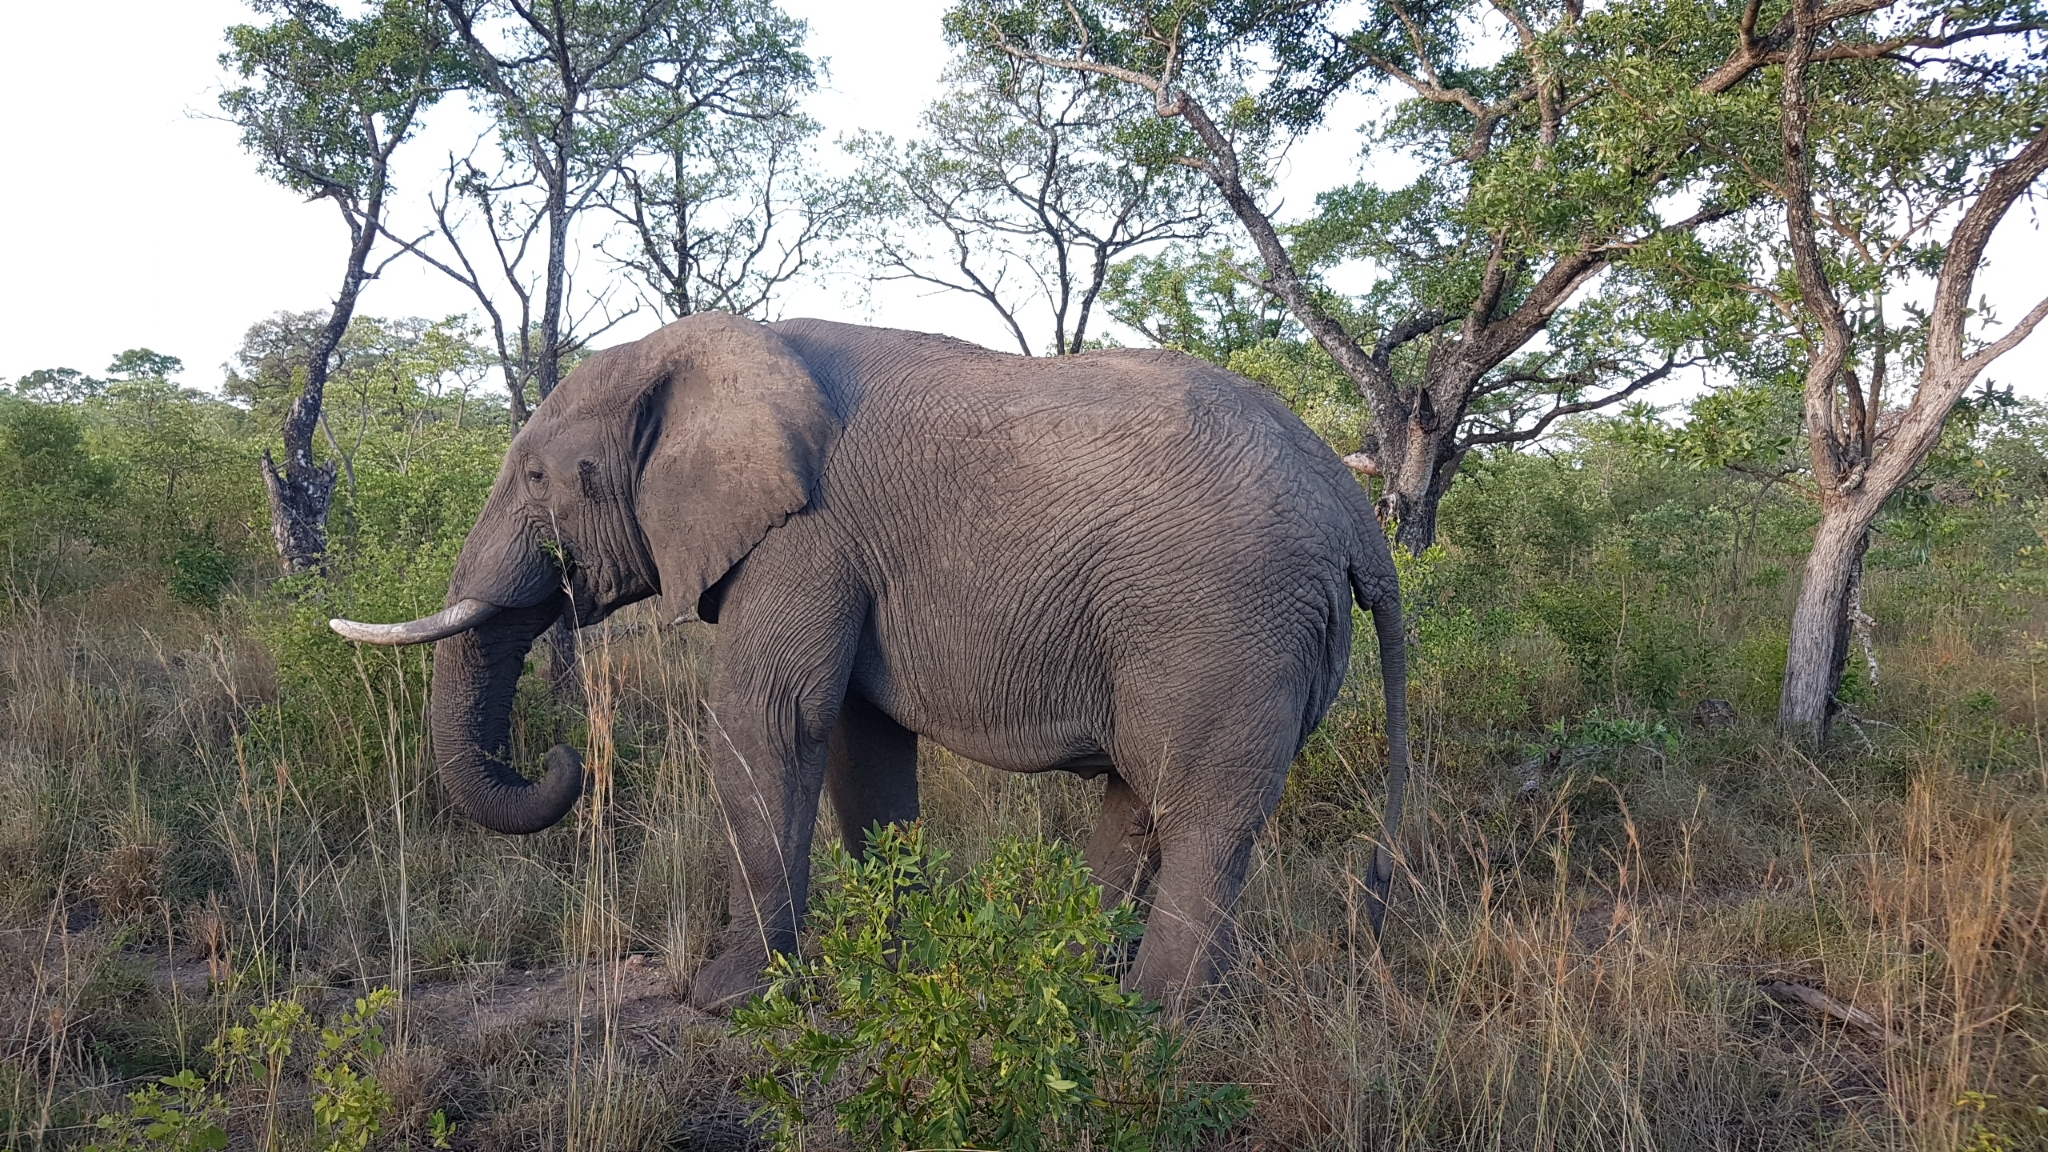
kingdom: Animalia
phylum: Chordata
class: Mammalia
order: Proboscidea
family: Elephantidae
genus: Loxodonta
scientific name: Loxodonta africana
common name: African elephant
